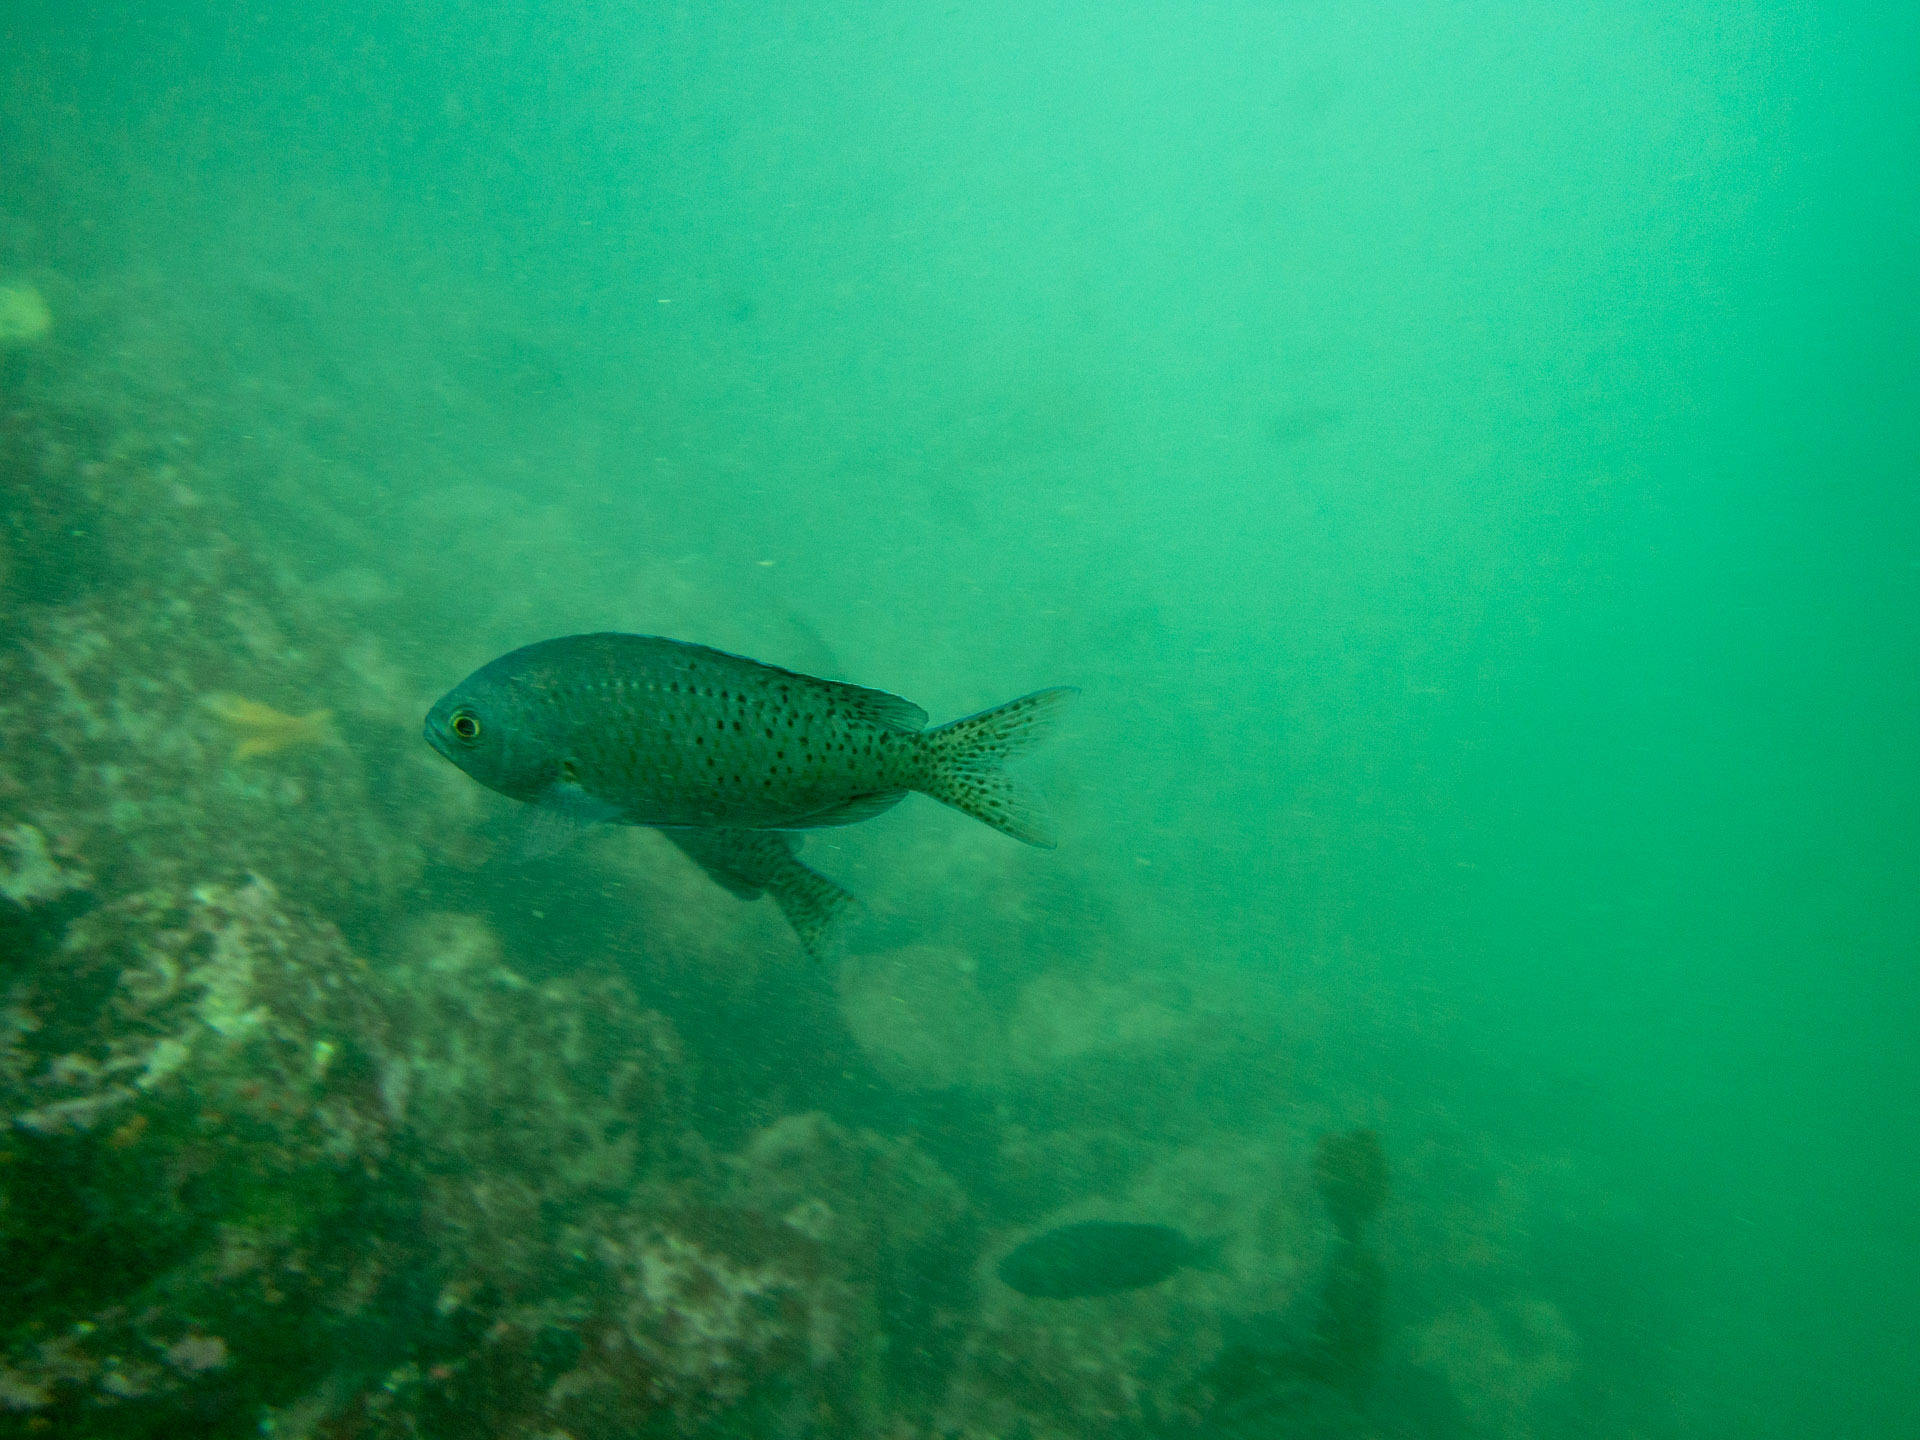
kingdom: Animalia
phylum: Chordata
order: Perciformes
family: Pomacentridae
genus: Chromis
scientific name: Chromis punctipinnis
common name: Blacksmith
